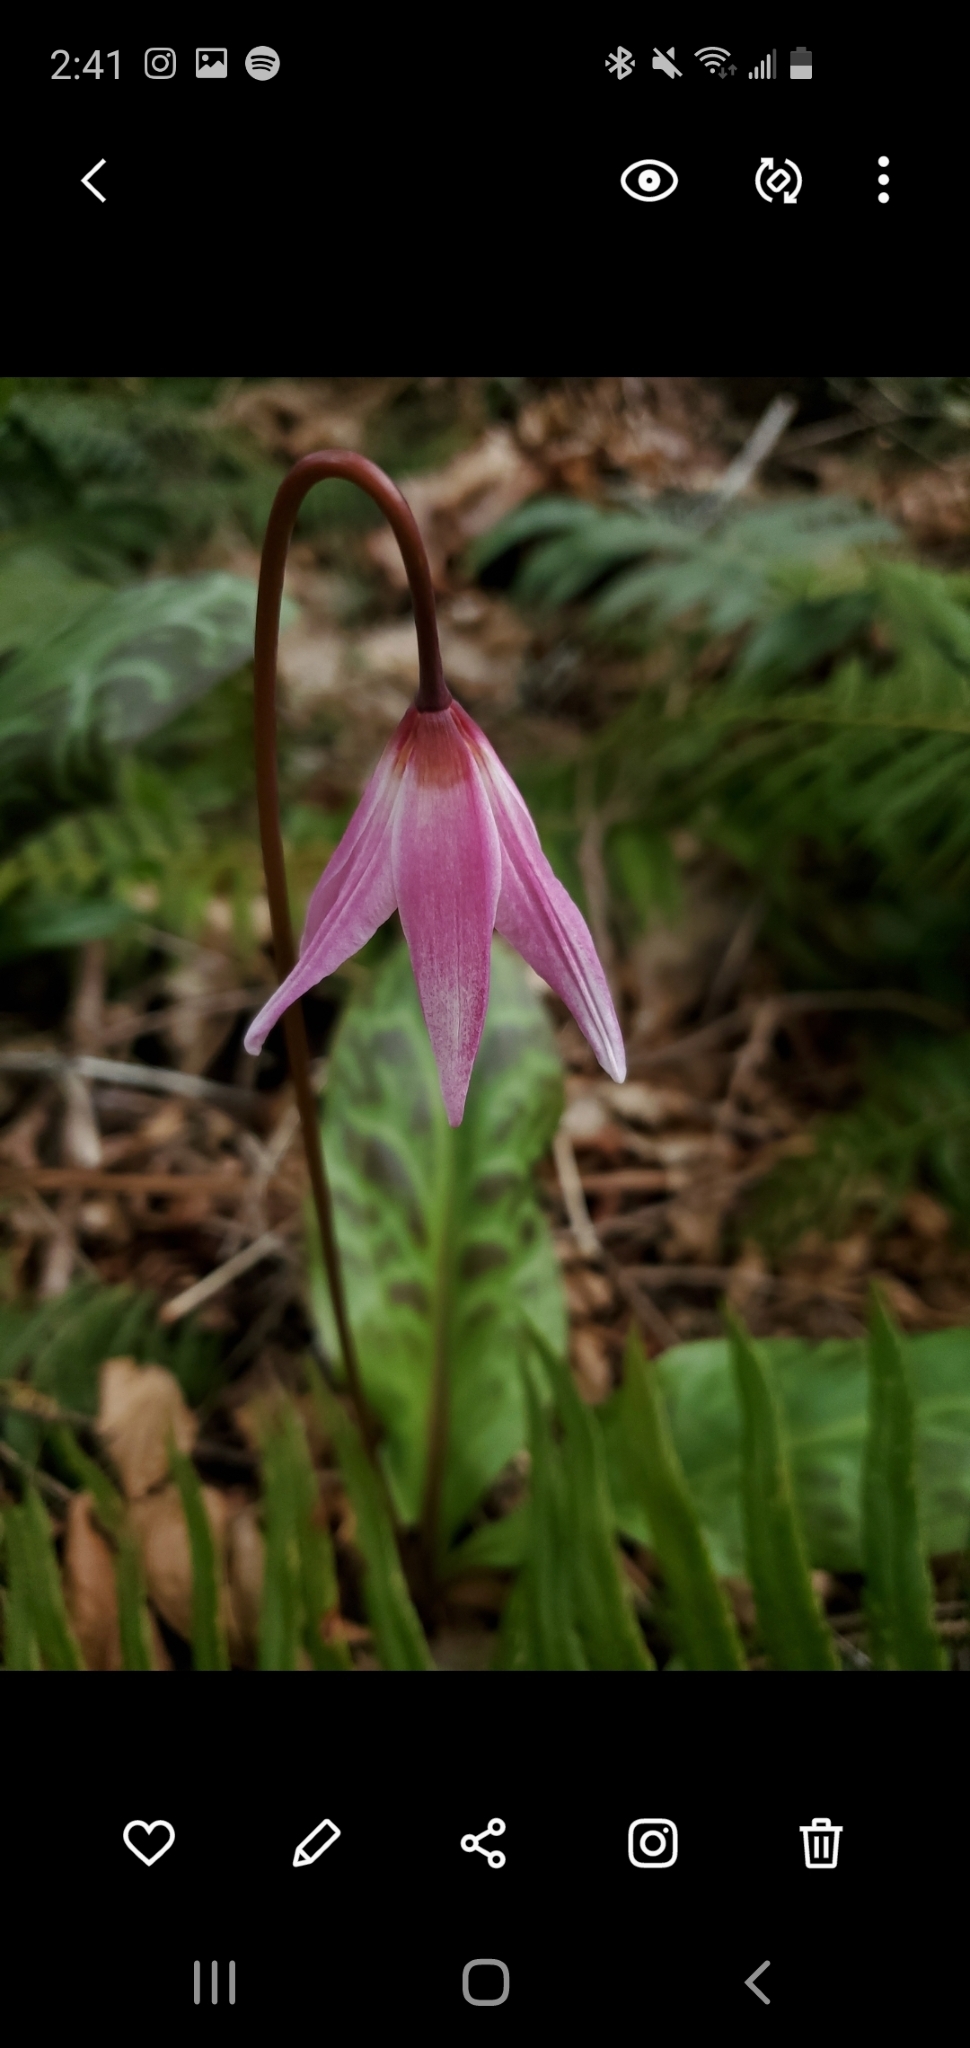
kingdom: Plantae
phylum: Tracheophyta
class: Liliopsida
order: Liliales
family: Liliaceae
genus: Erythronium
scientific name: Erythronium revolutum
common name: Pink fawn-lily
